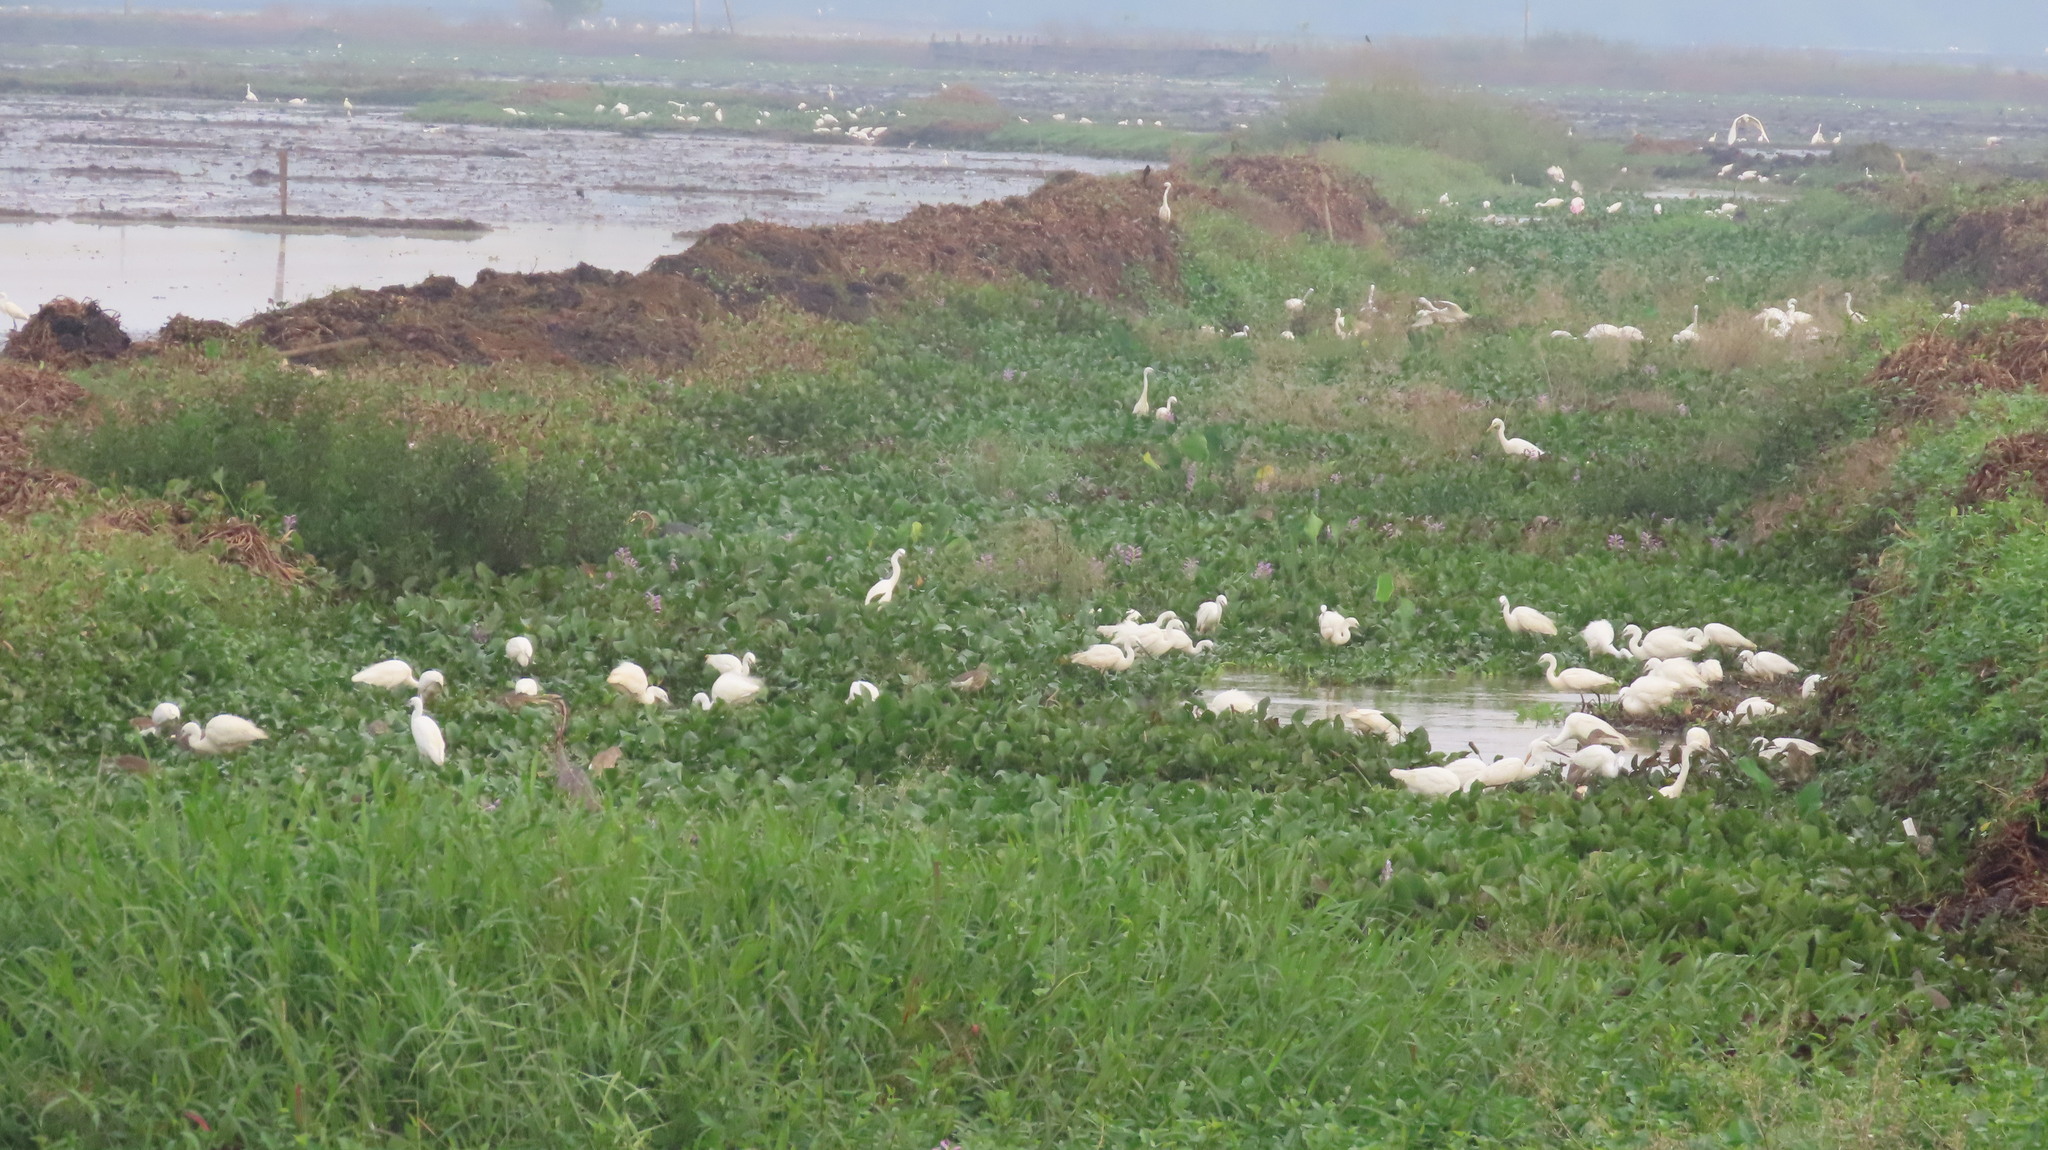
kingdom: Animalia
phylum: Chordata
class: Aves
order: Pelecaniformes
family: Ardeidae
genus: Ardea
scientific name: Ardea purpurea
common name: Purple heron
